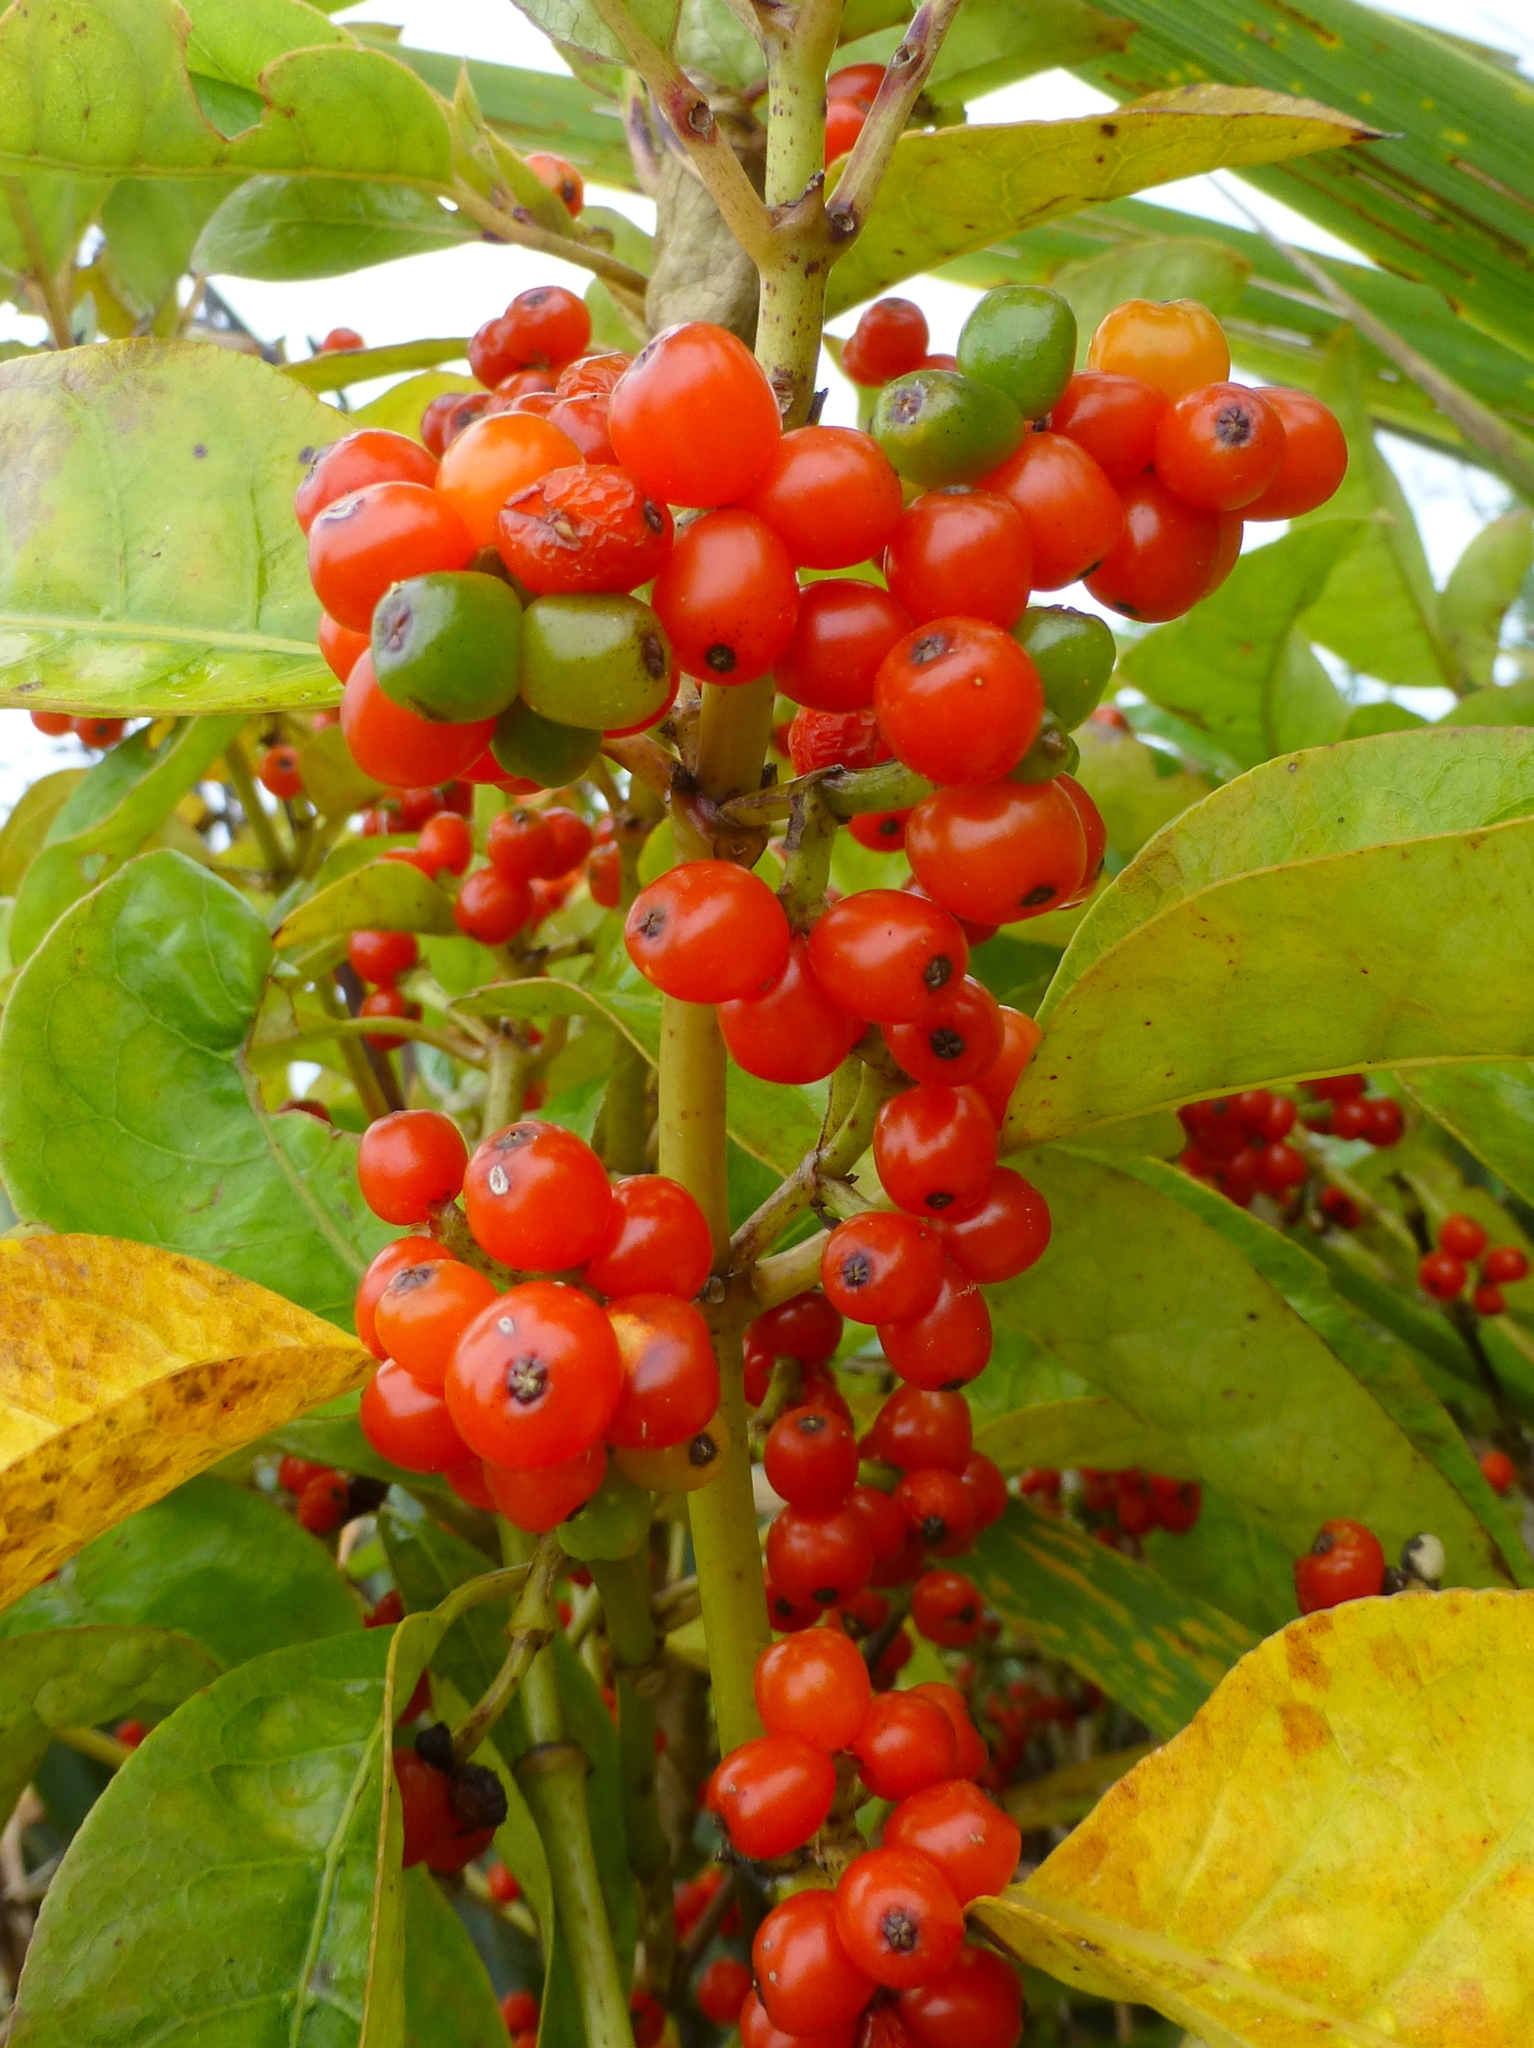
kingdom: Plantae
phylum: Tracheophyta
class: Magnoliopsida
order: Gentianales
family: Rubiaceae
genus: Coprosma
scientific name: Coprosma autumnalis
